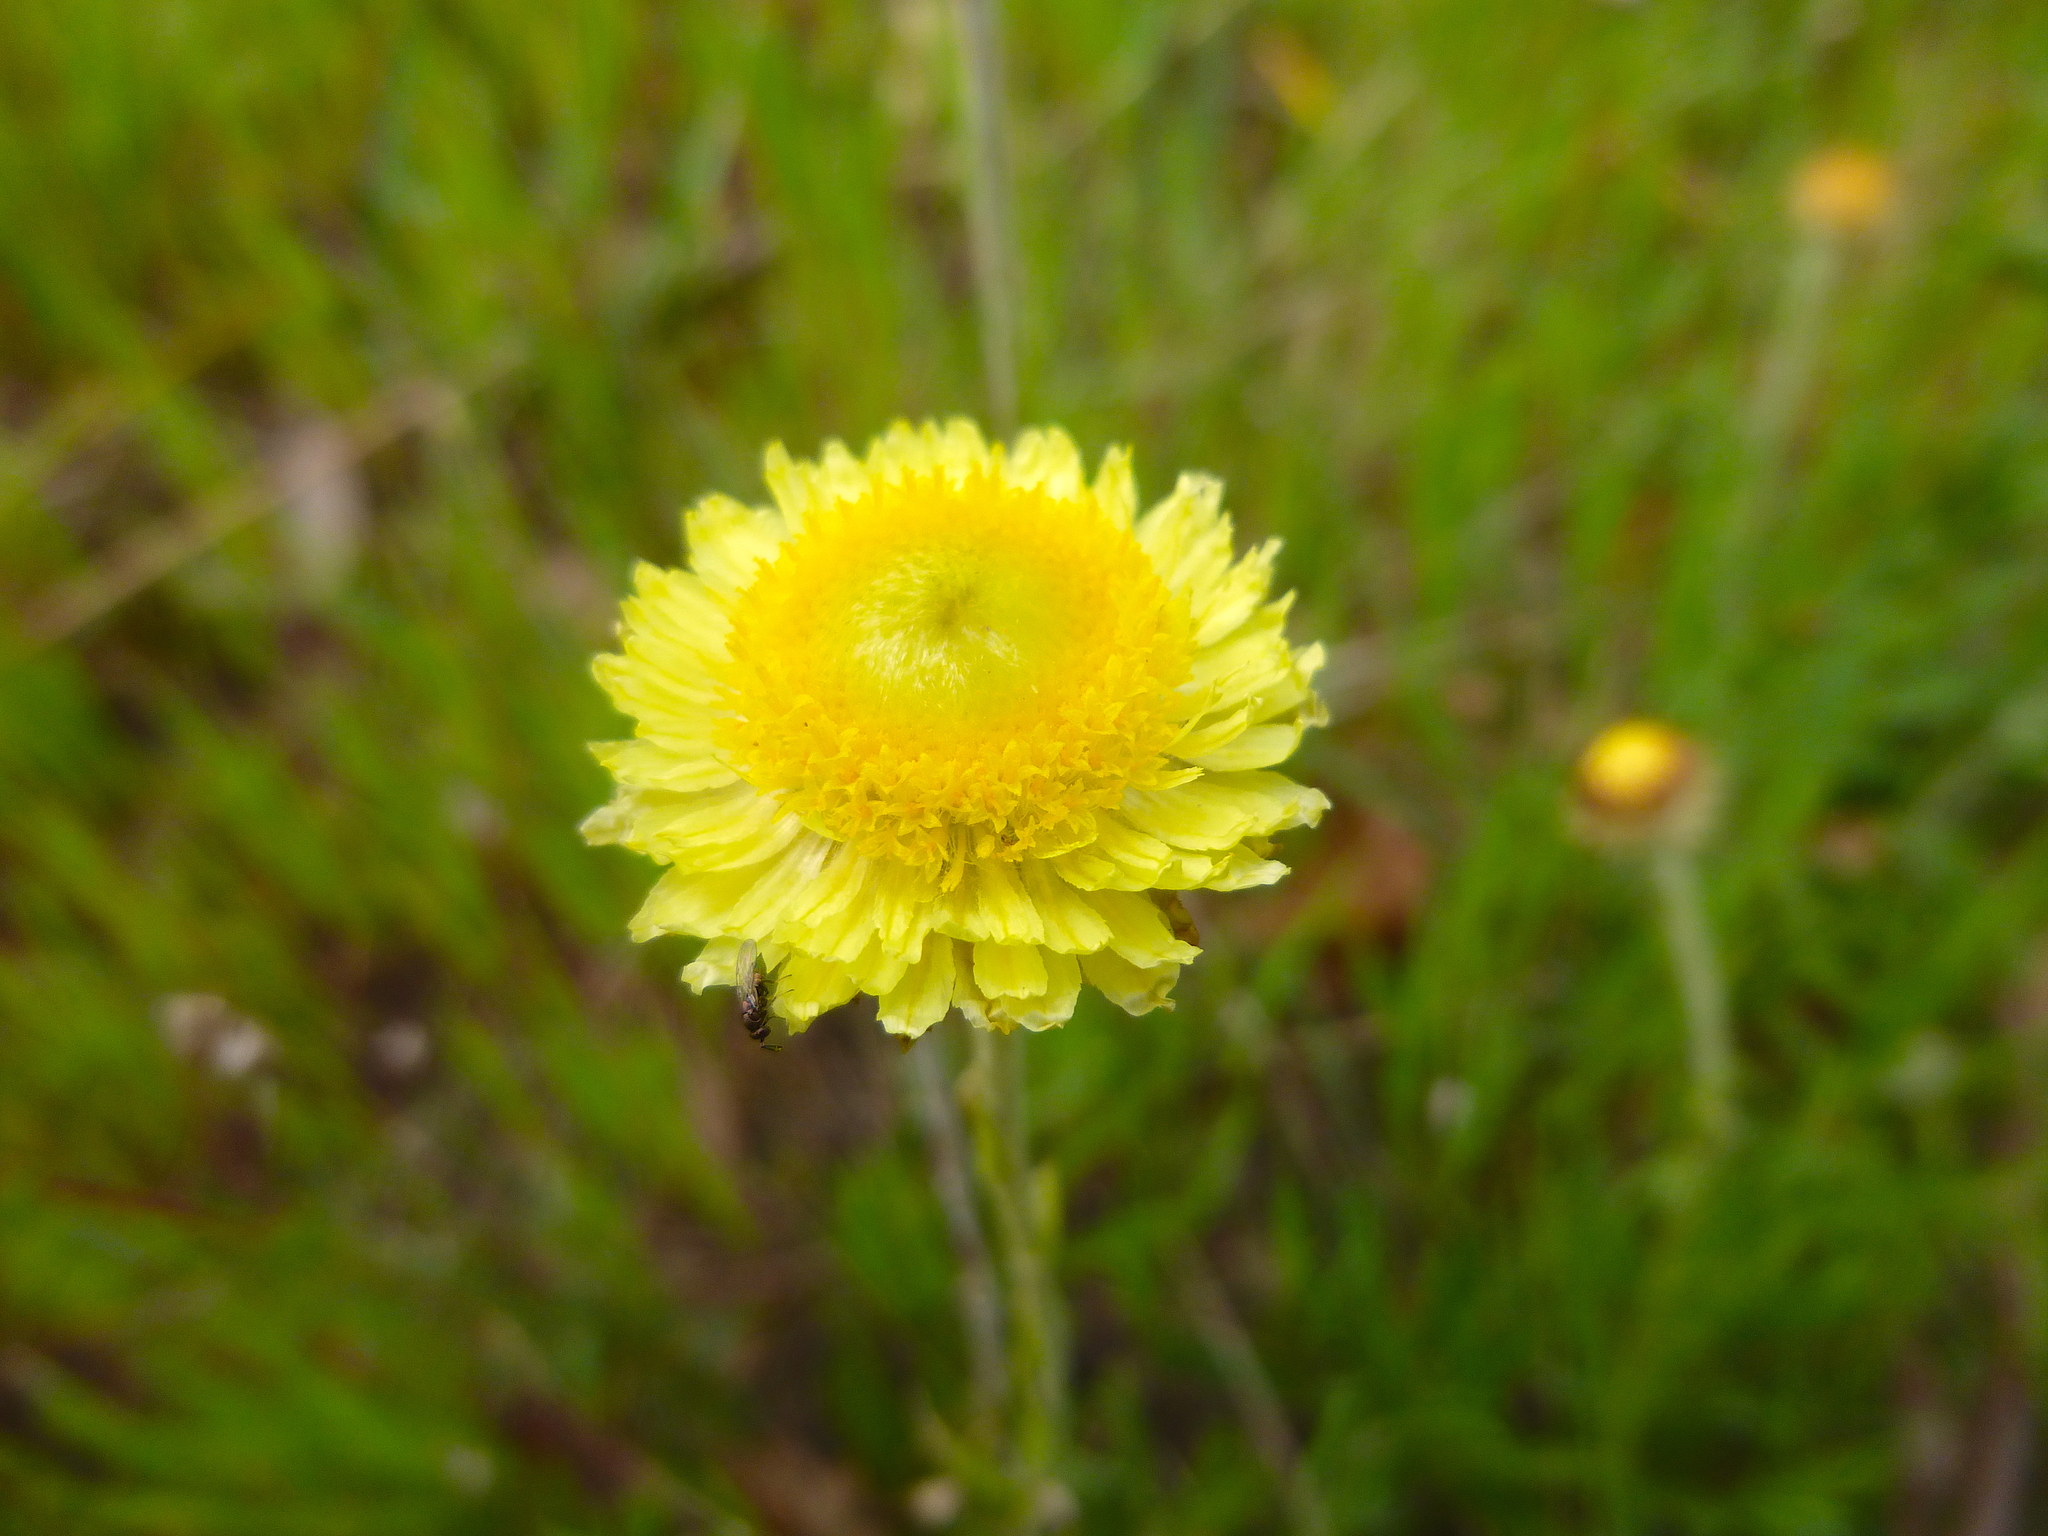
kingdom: Plantae
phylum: Tracheophyta
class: Magnoliopsida
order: Asterales
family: Asteraceae
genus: Coronidium
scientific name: Coronidium scorpioides
